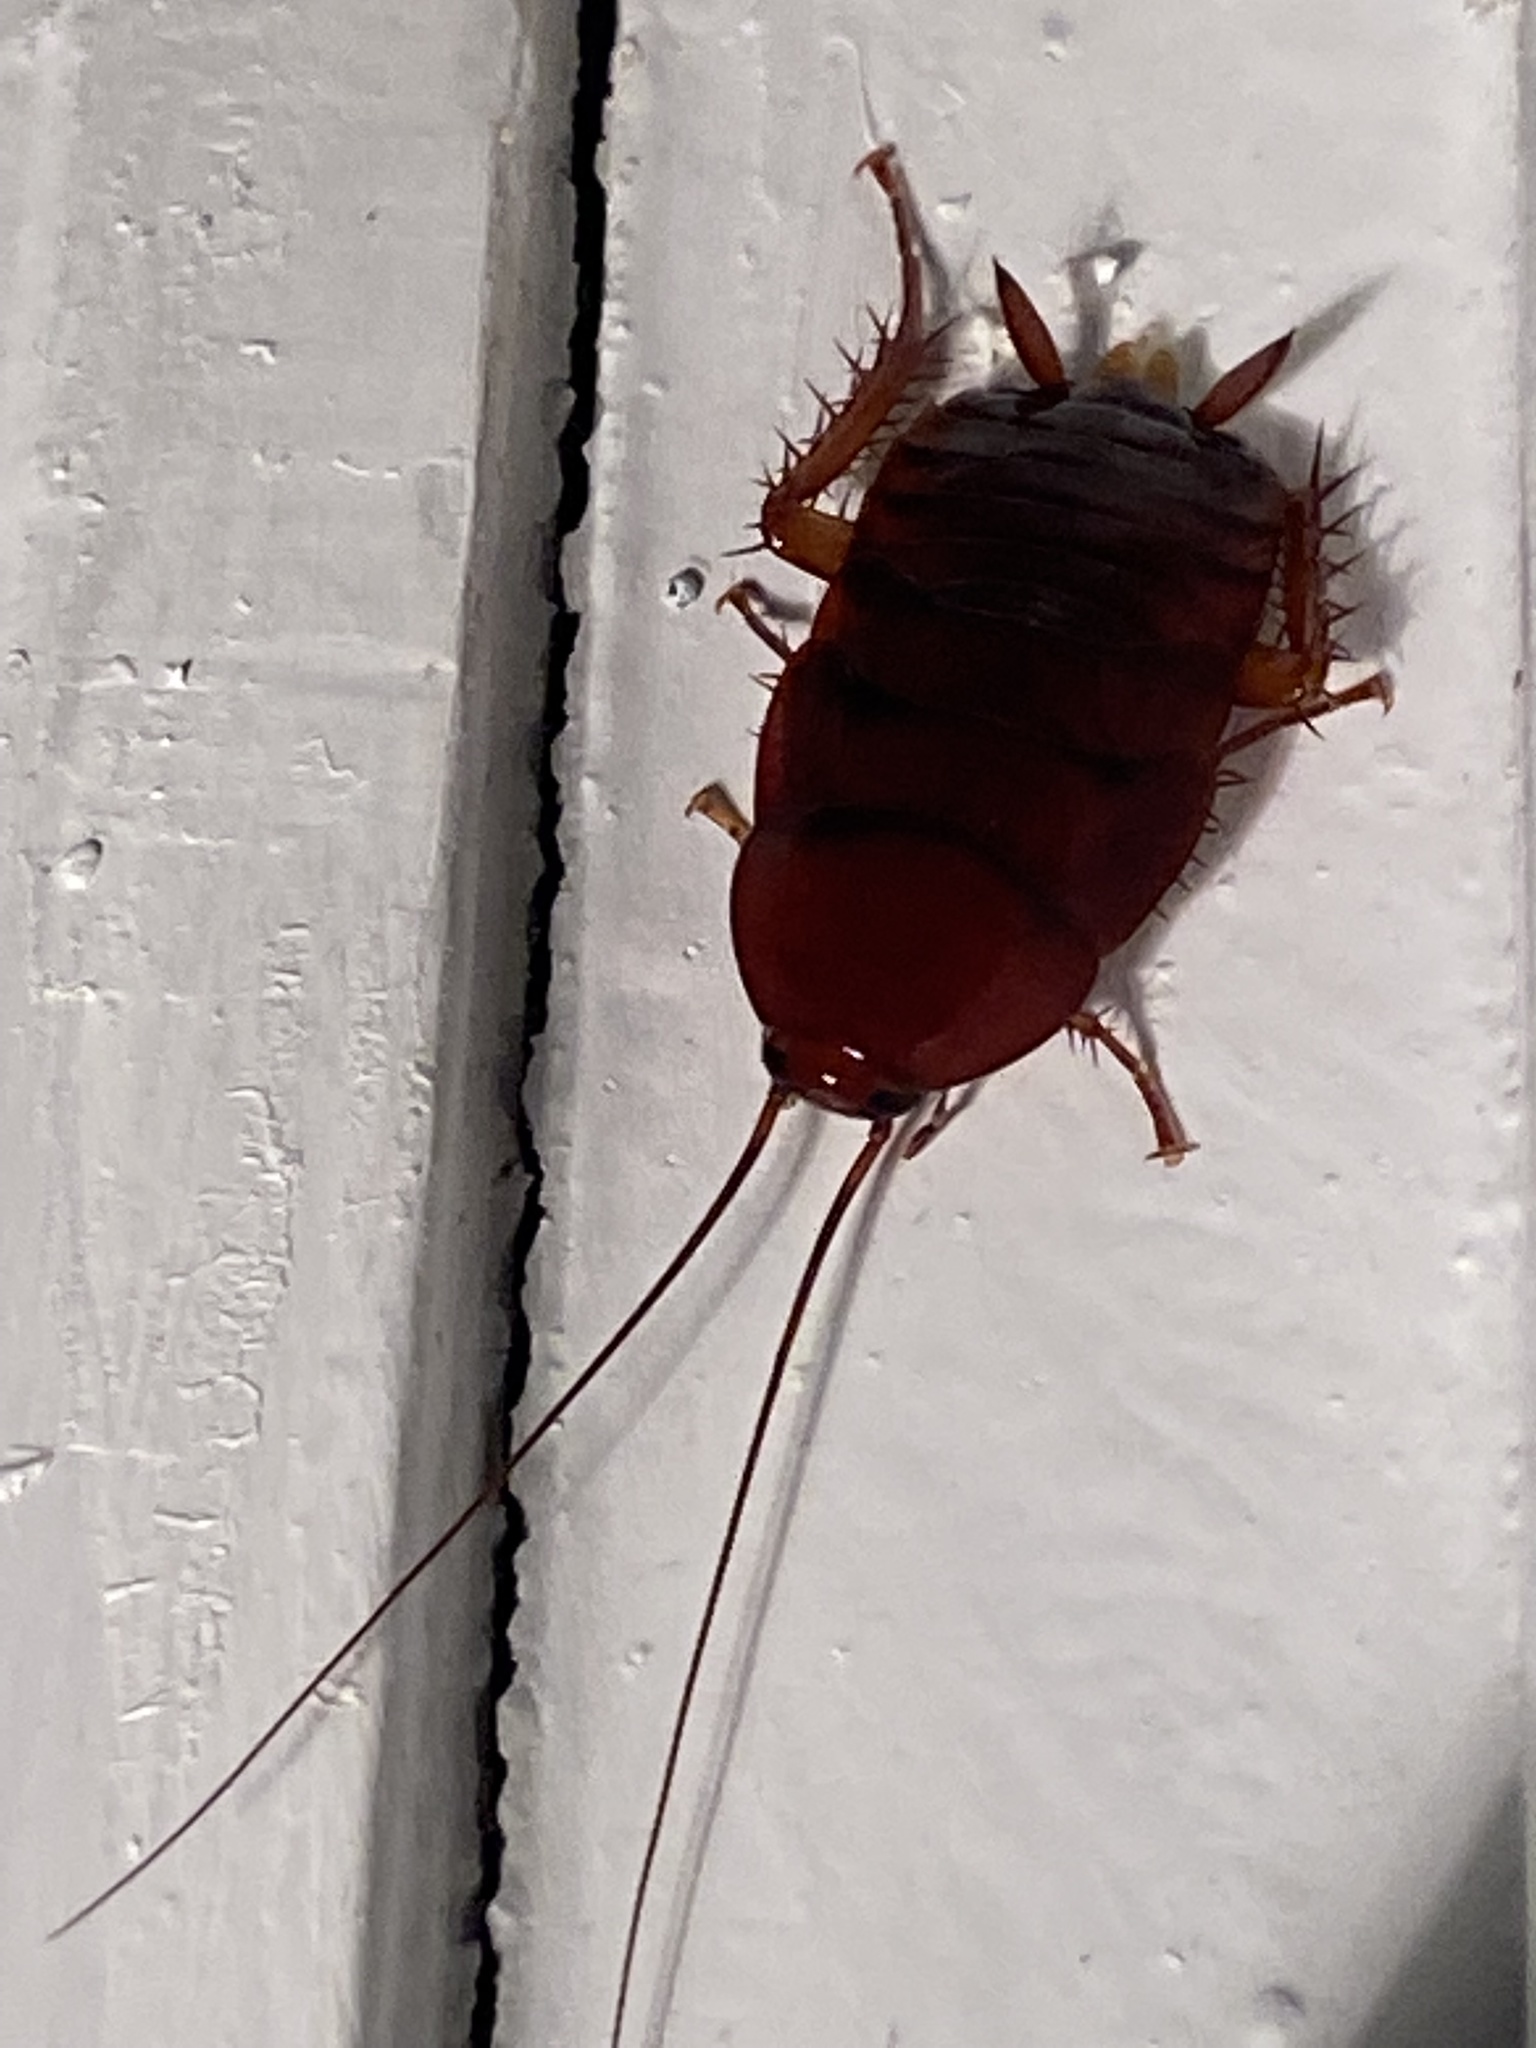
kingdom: Animalia
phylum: Arthropoda
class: Insecta
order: Blattodea
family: Blattidae
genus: Periplaneta
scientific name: Periplaneta fuliginosa
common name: Smokeybrown cockroad
